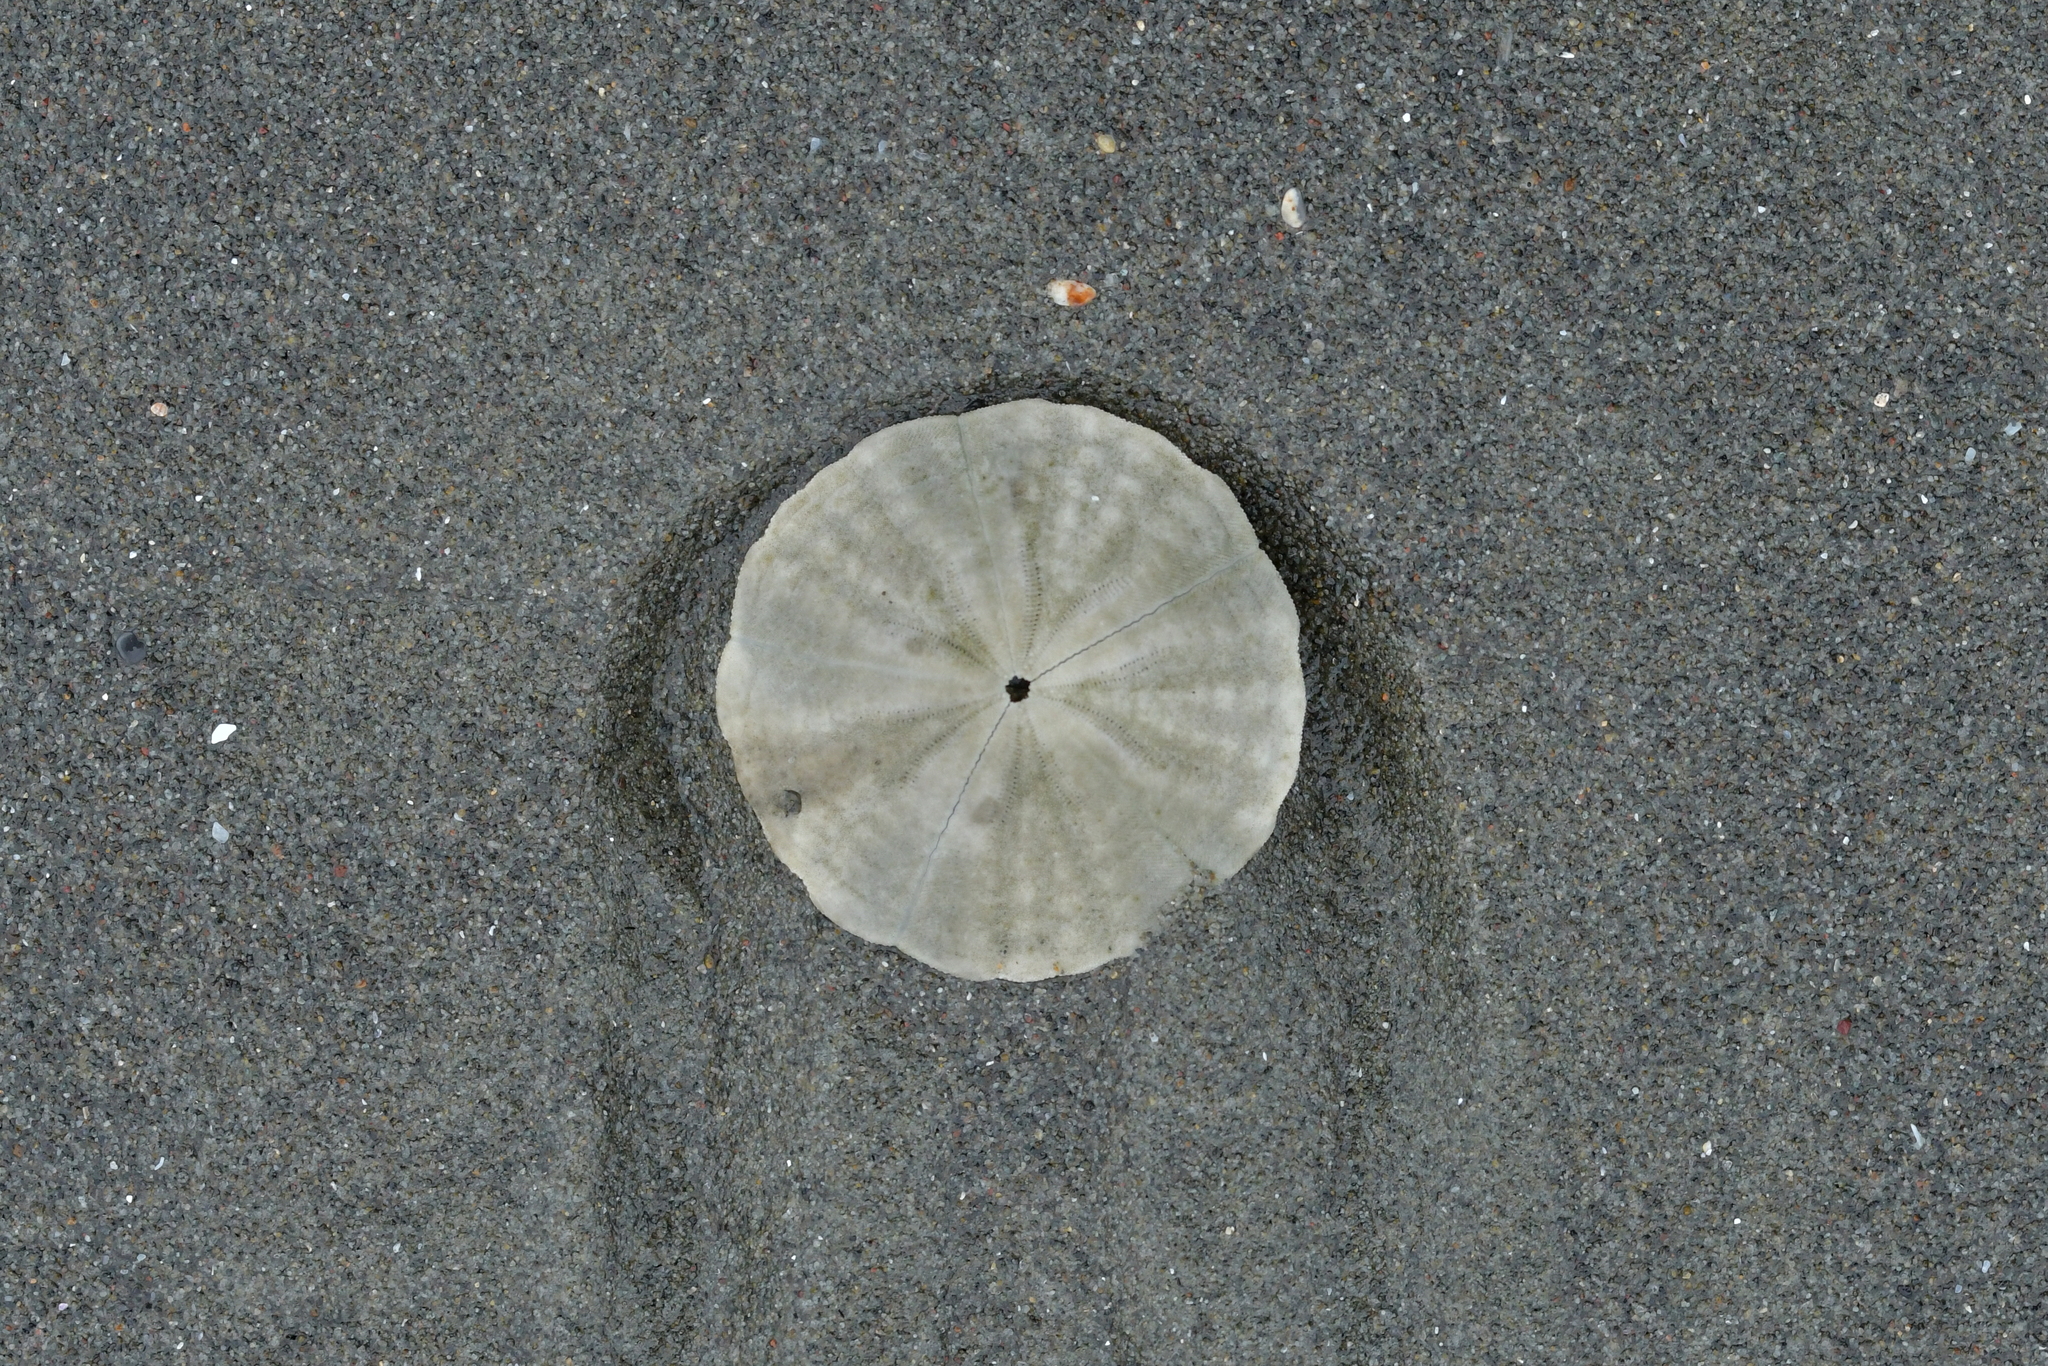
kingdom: Animalia
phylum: Echinodermata
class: Echinoidea
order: Clypeasteroida
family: Clypeasteridae
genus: Fellaster
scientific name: Fellaster zelandiae
